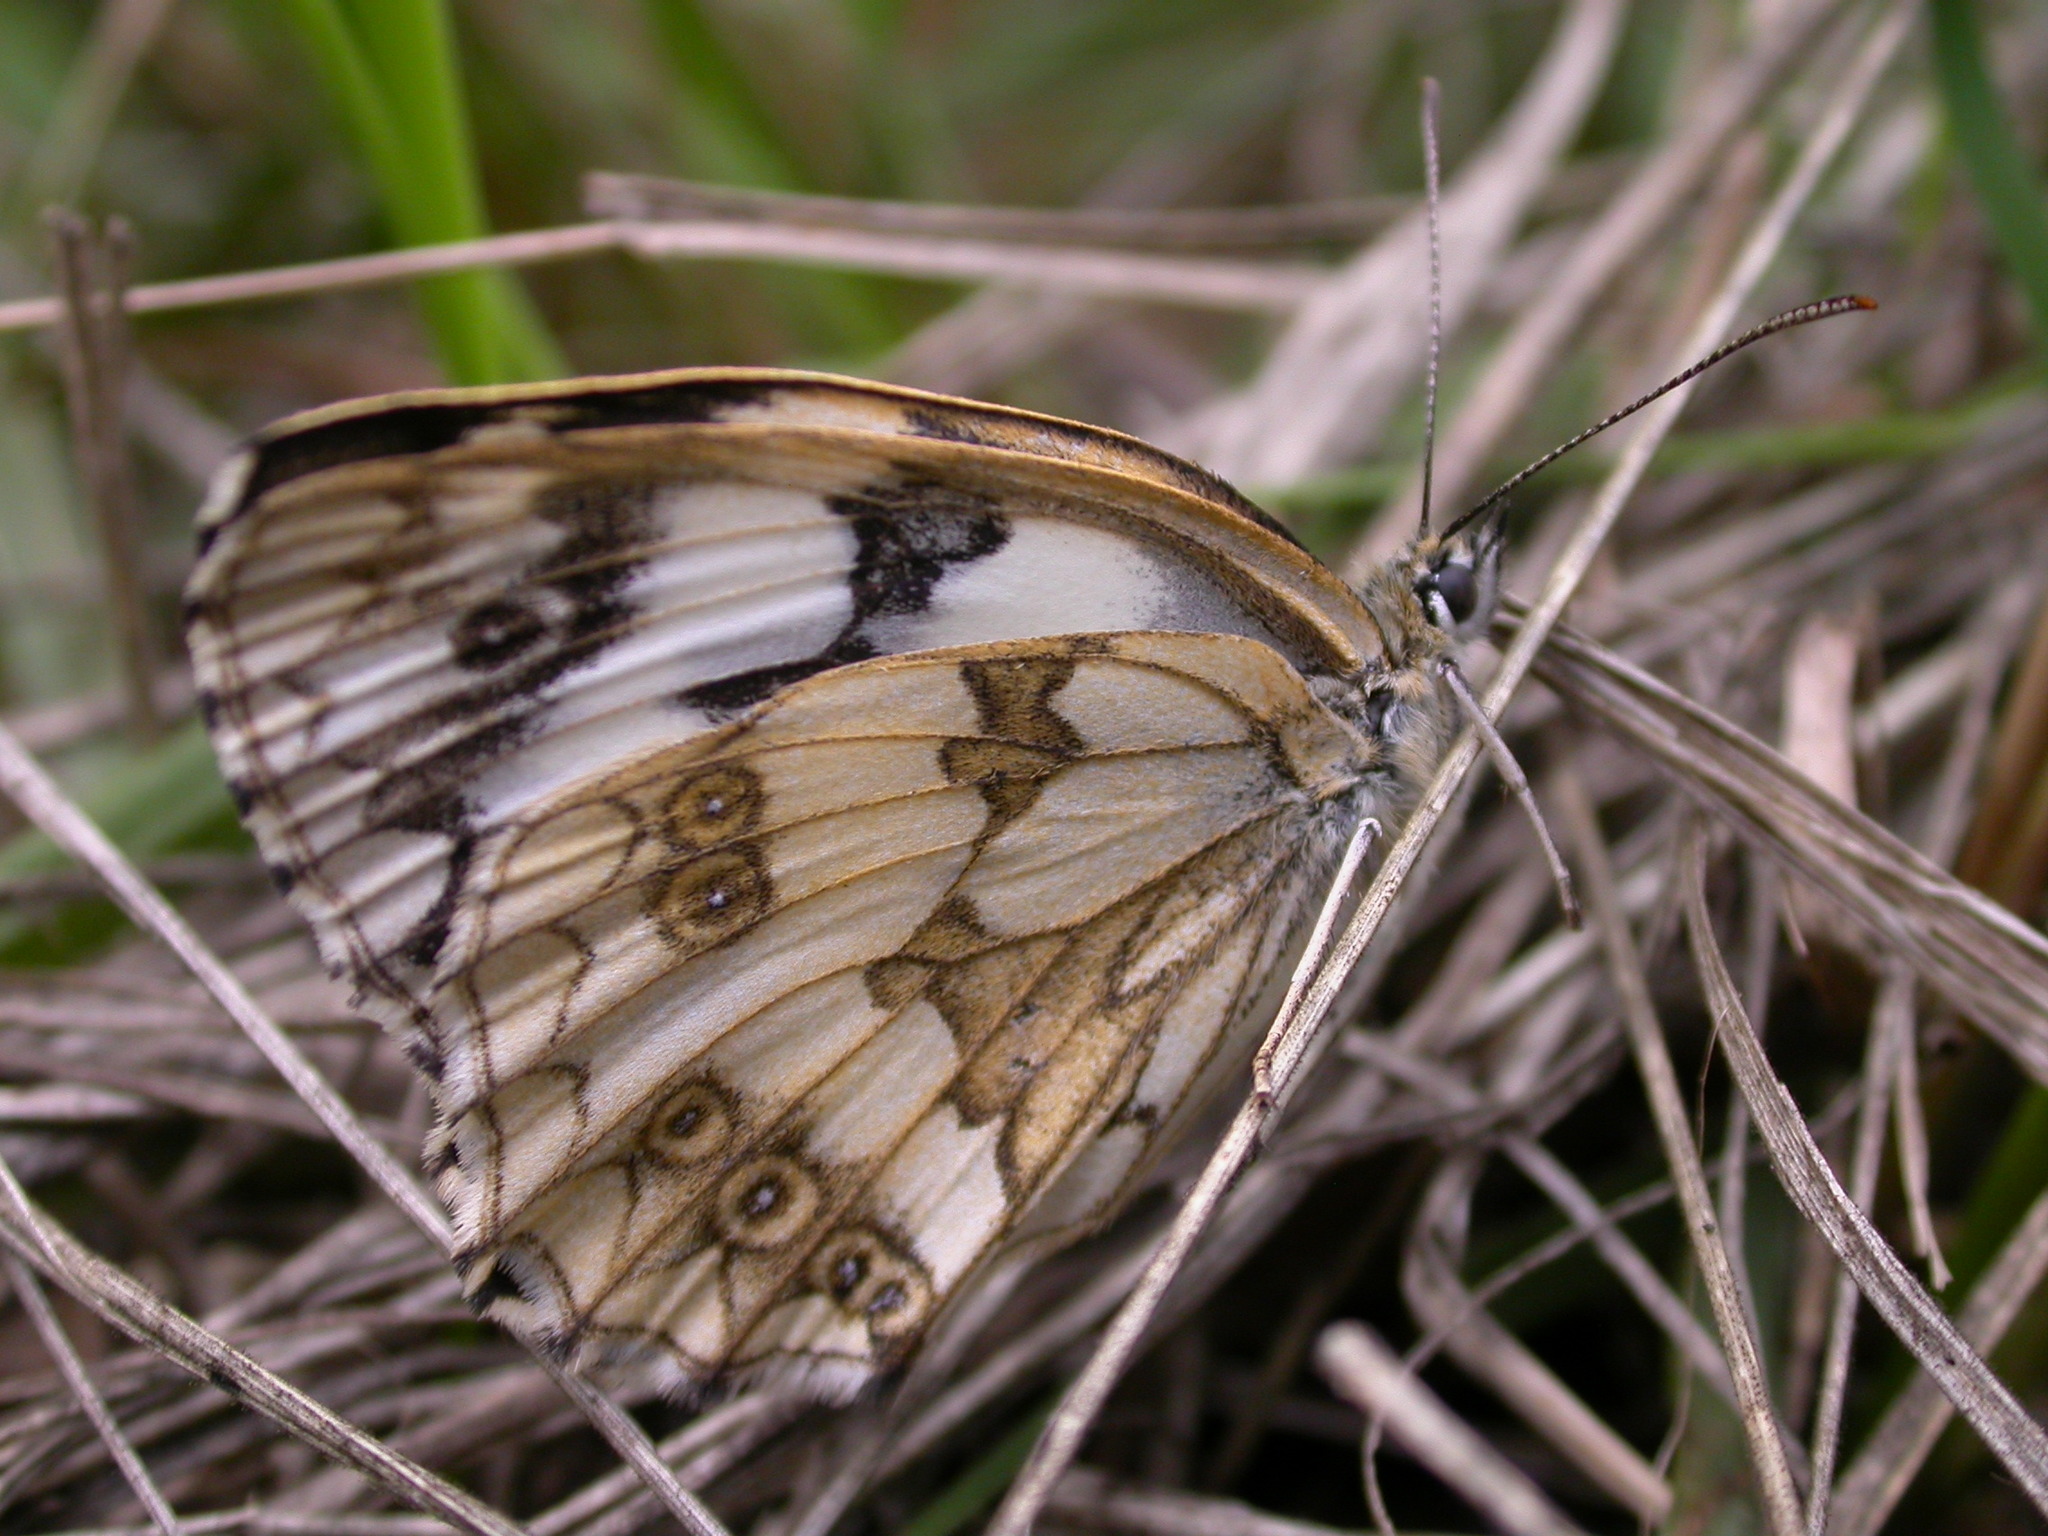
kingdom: Animalia
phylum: Arthropoda
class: Insecta
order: Lepidoptera
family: Nymphalidae
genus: Melanargia
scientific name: Melanargia galathea
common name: Marbled white
